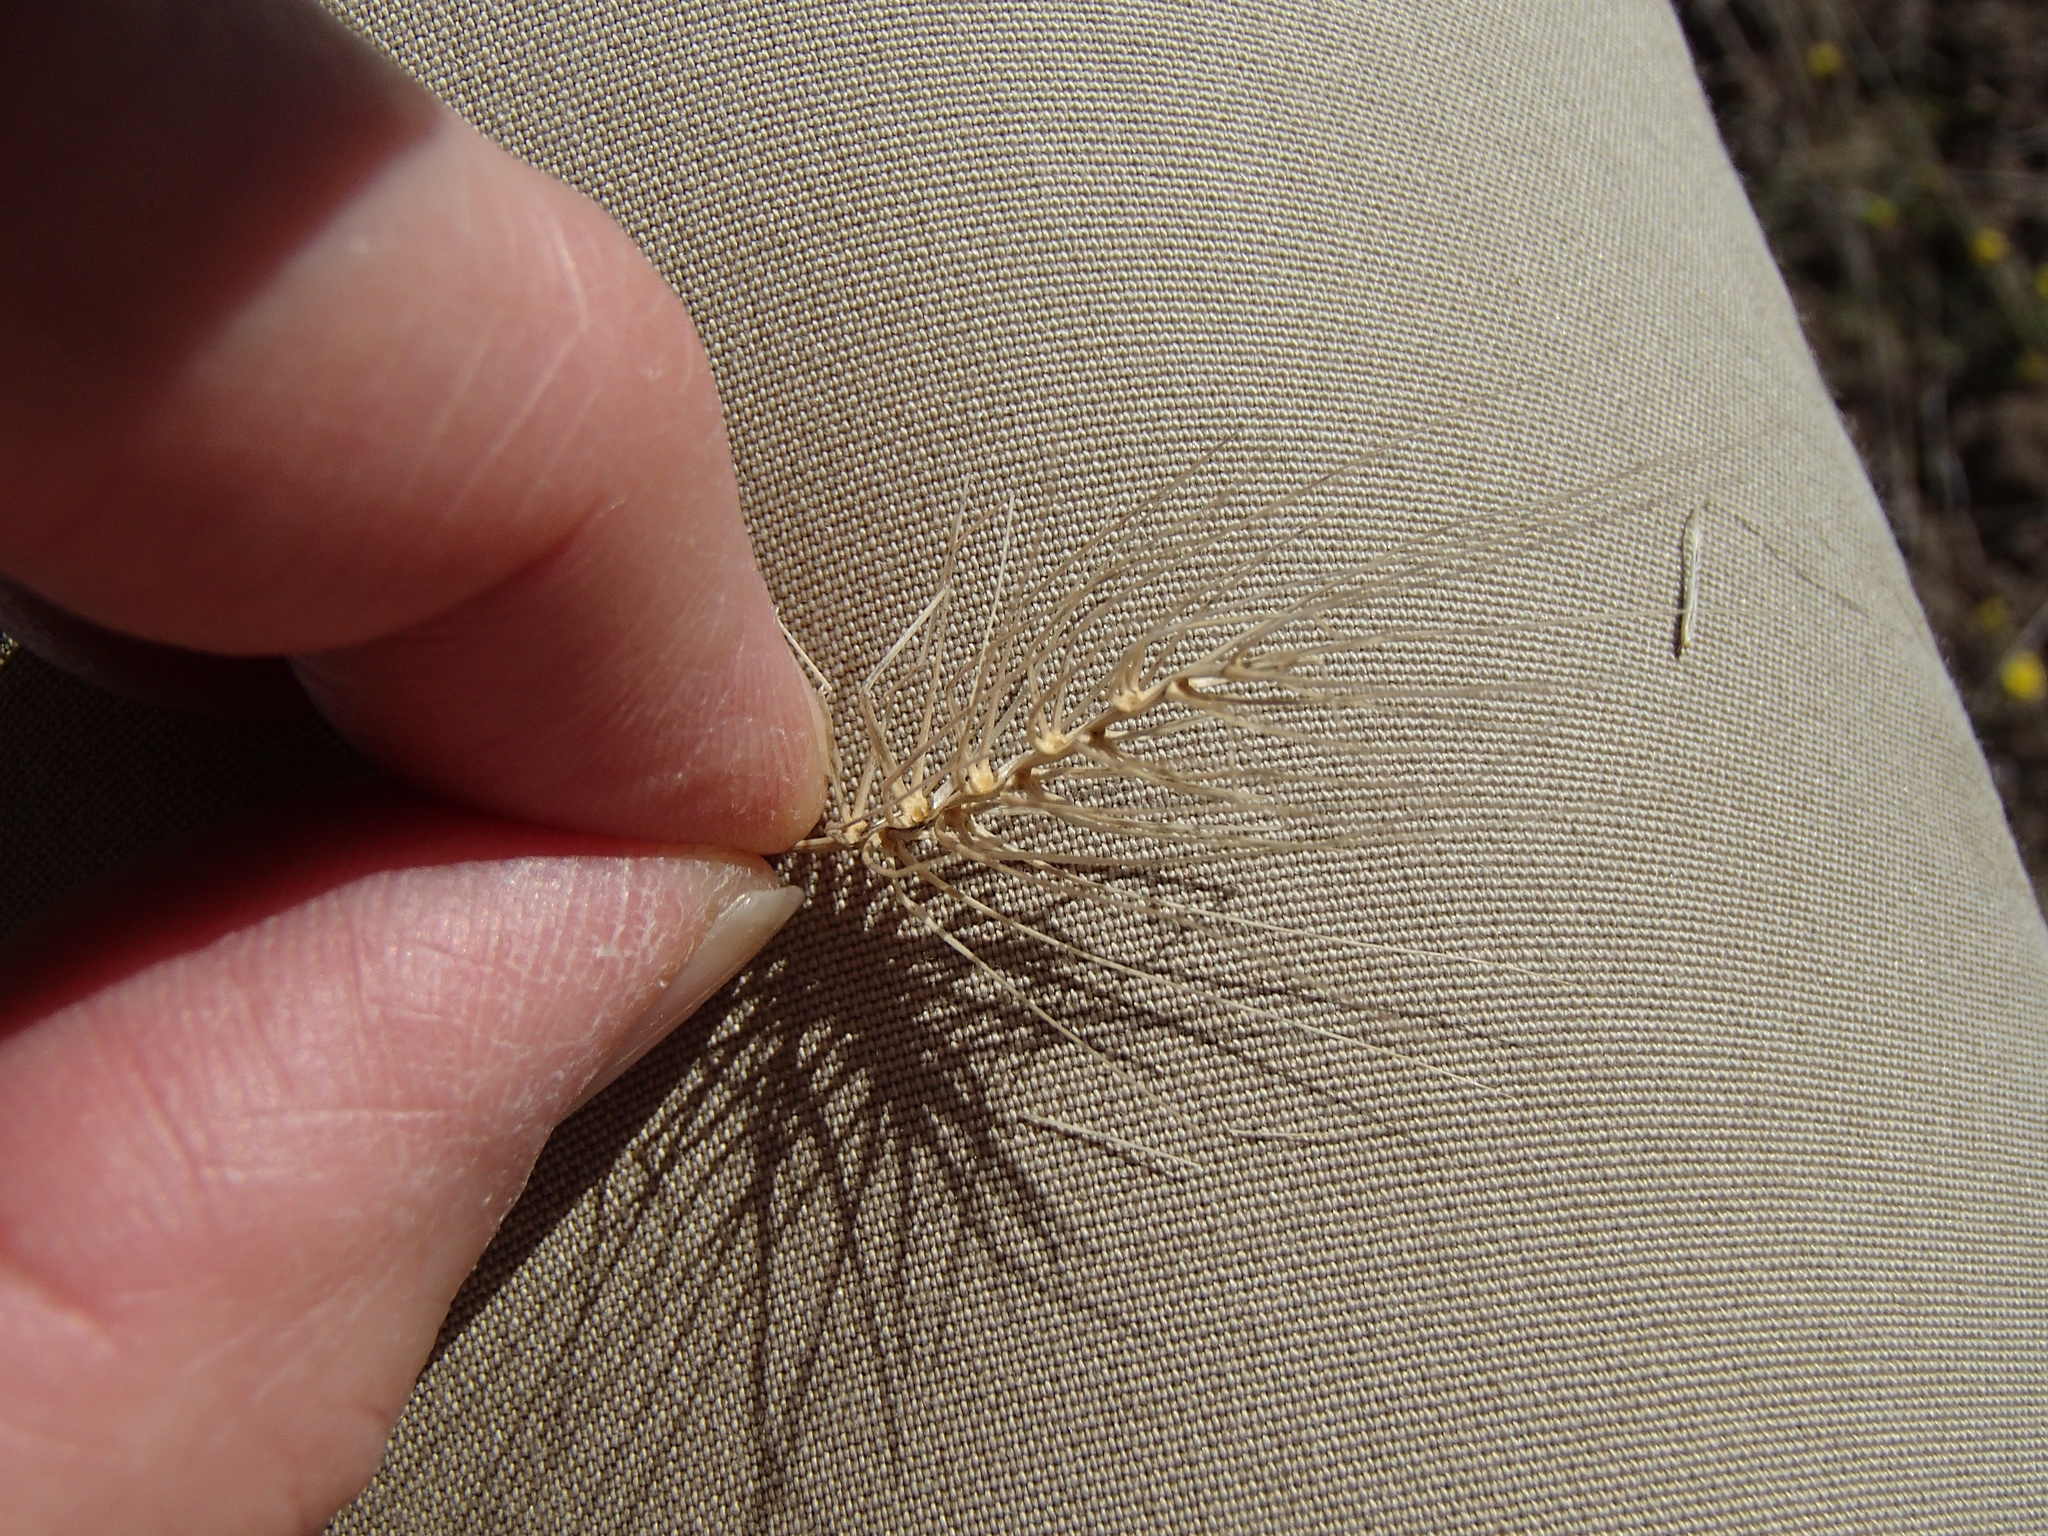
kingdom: Plantae
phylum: Tracheophyta
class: Liliopsida
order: Poales
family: Poaceae
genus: Taeniatherum
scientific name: Taeniatherum caput-medusae
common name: Medusahead
